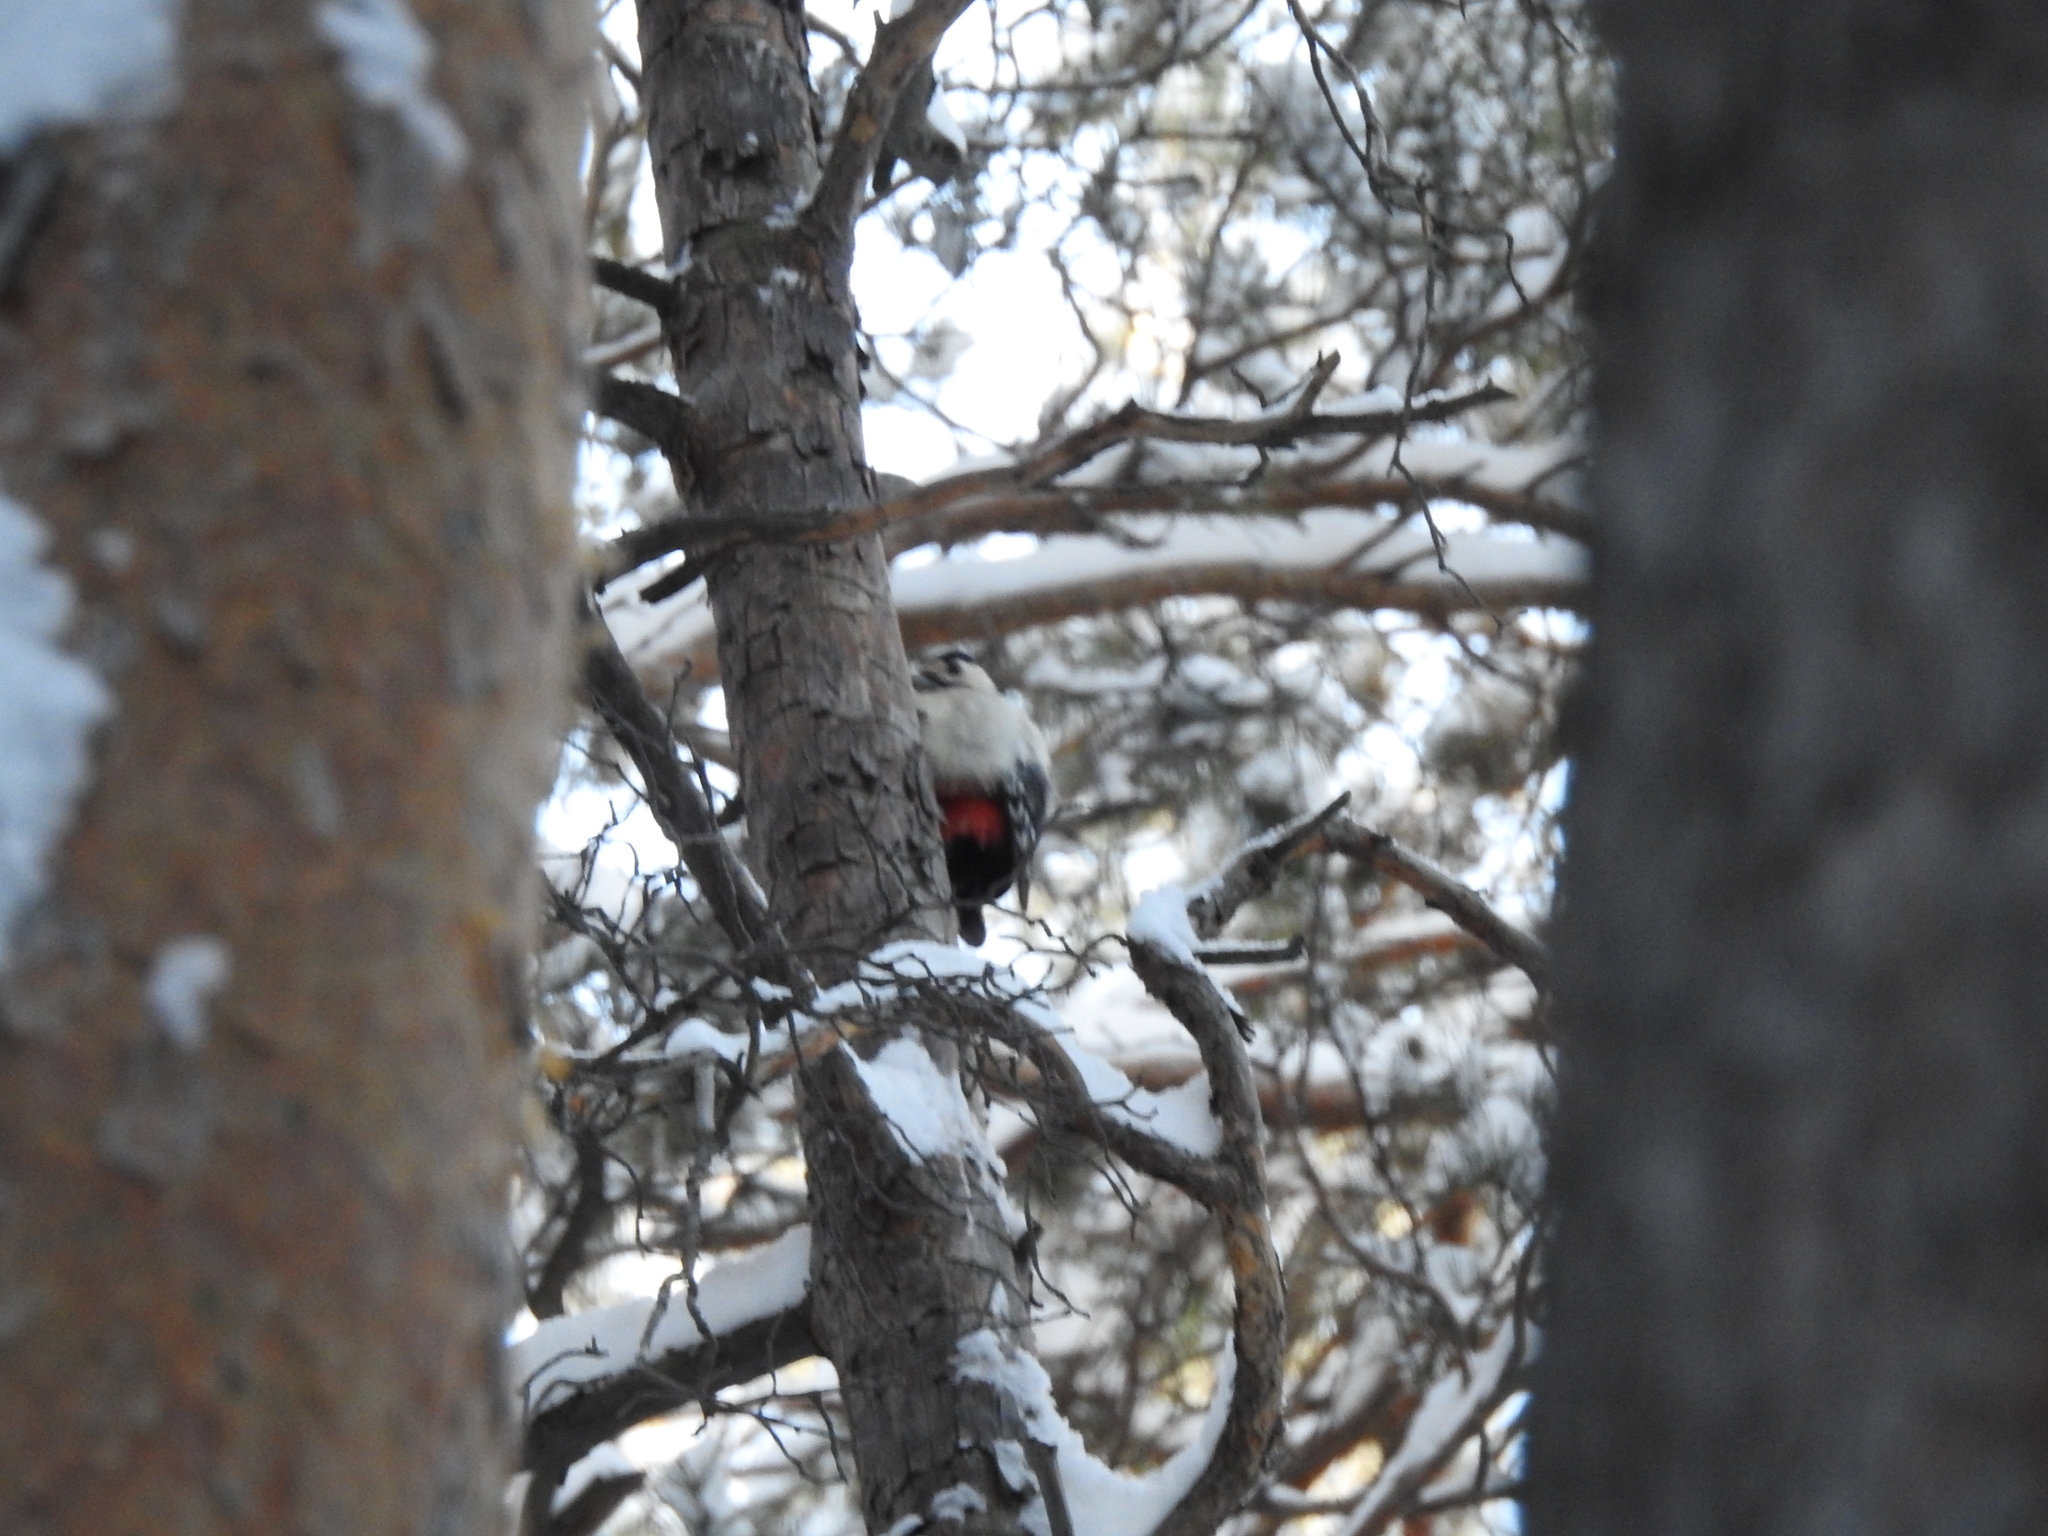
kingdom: Animalia
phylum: Chordata
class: Aves
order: Piciformes
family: Picidae
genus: Dendrocopos
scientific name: Dendrocopos major
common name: Great spotted woodpecker
